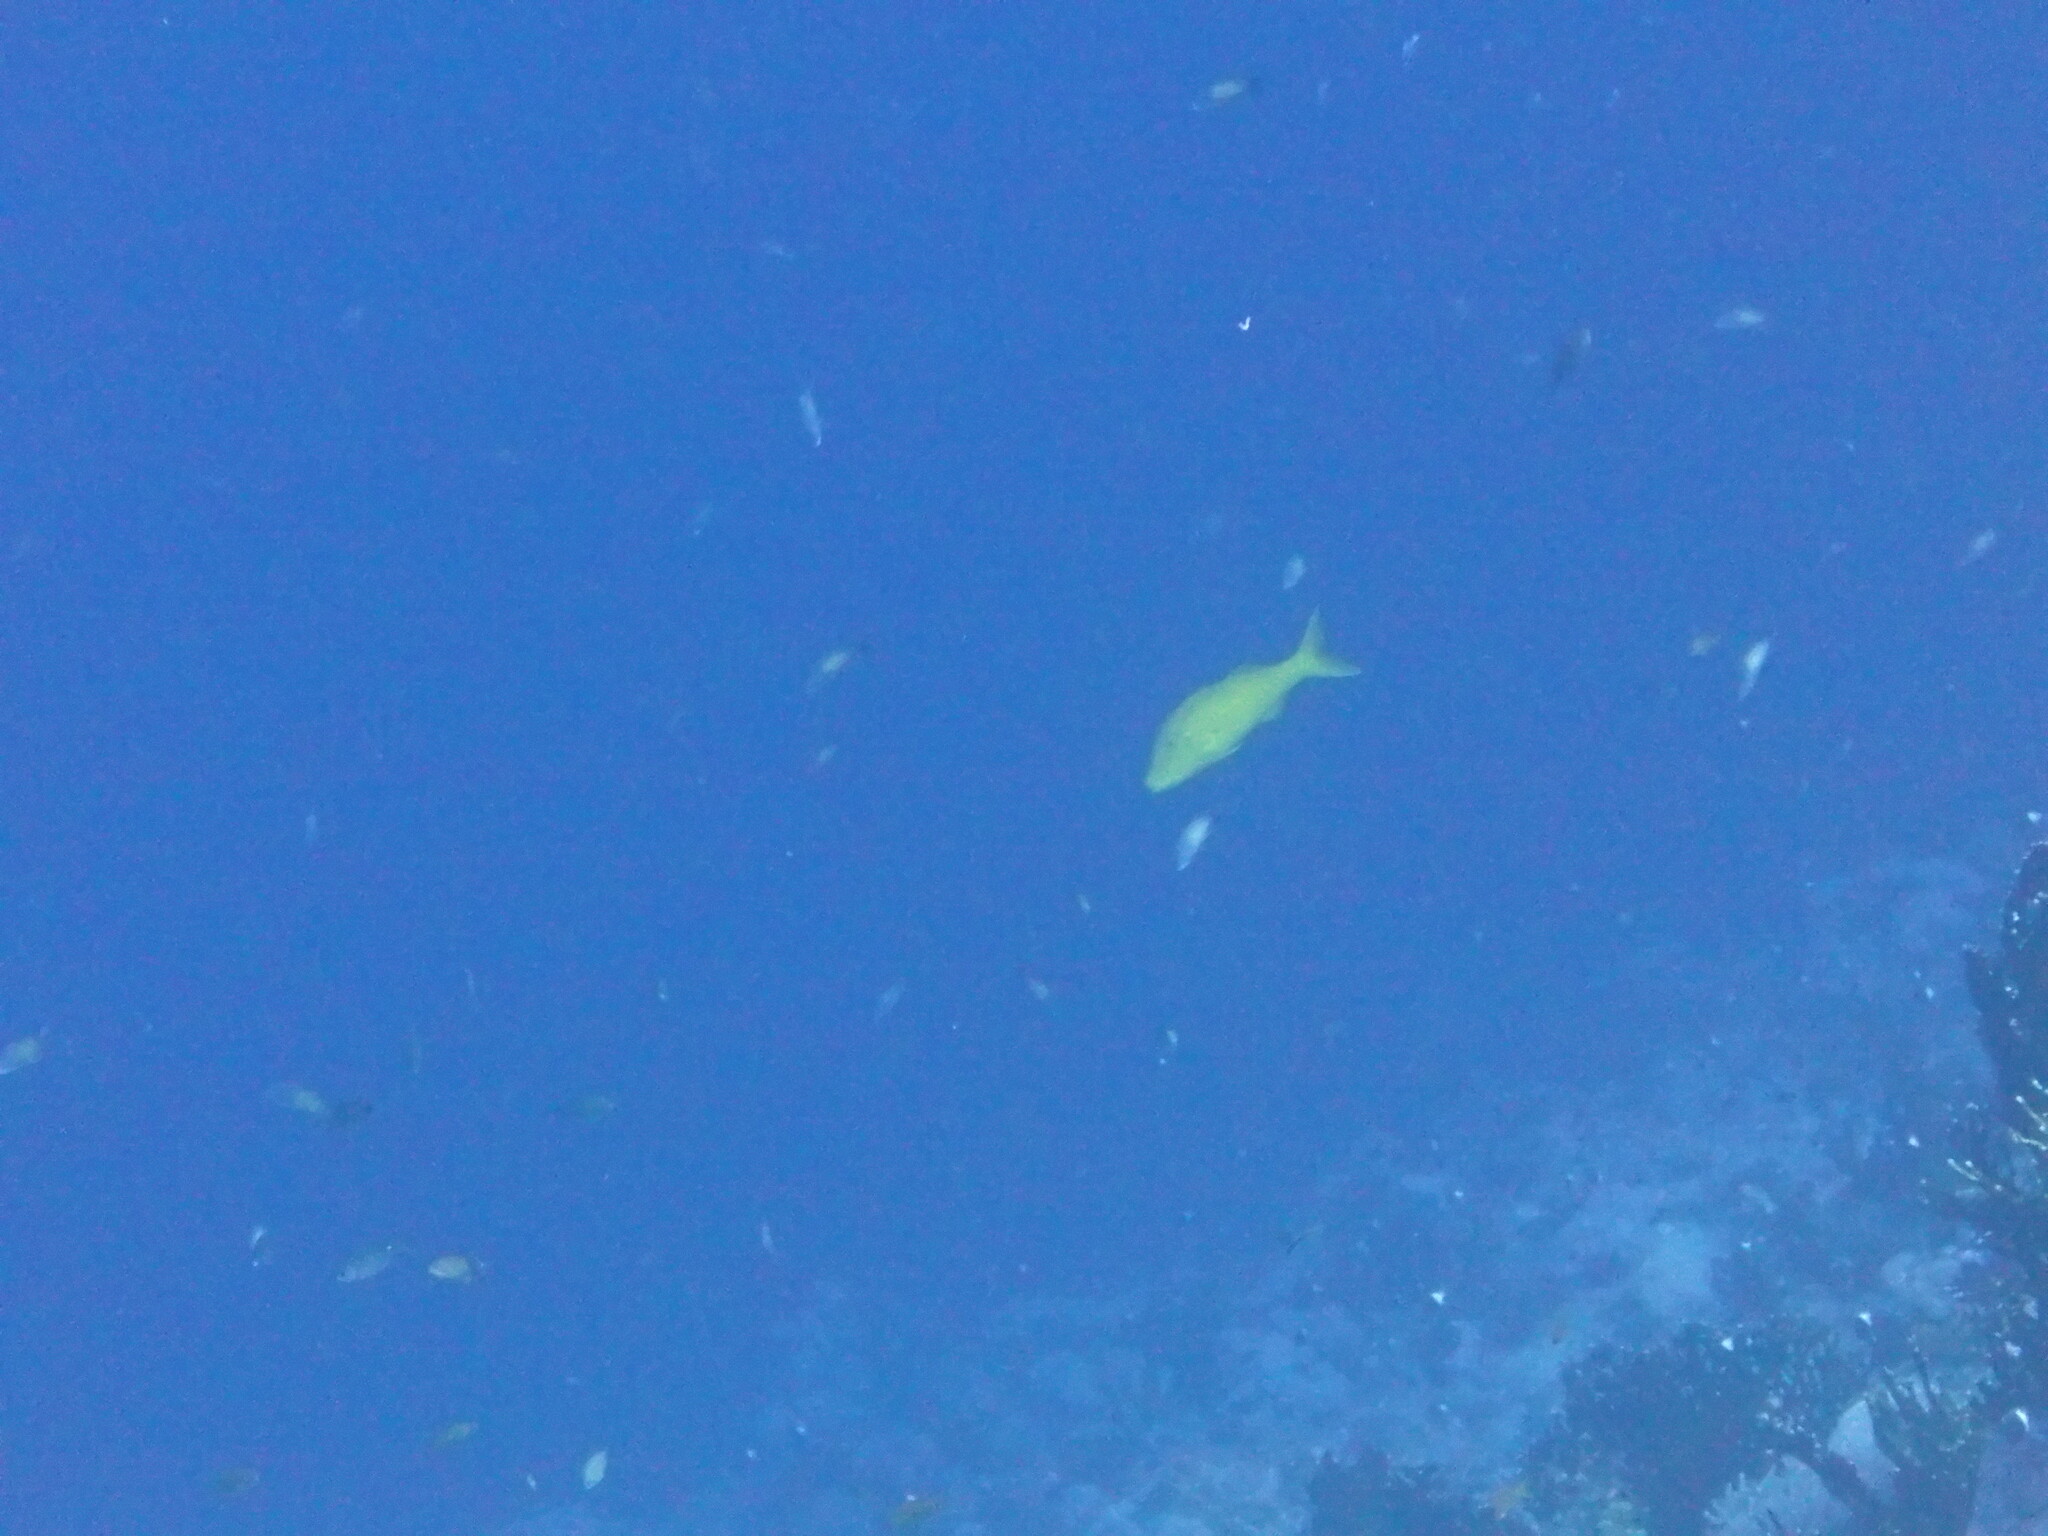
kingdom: Animalia
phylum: Chordata
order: Perciformes
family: Mullidae
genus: Parupeneus
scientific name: Parupeneus cyclostomus
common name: Goldsaddle goatfish
